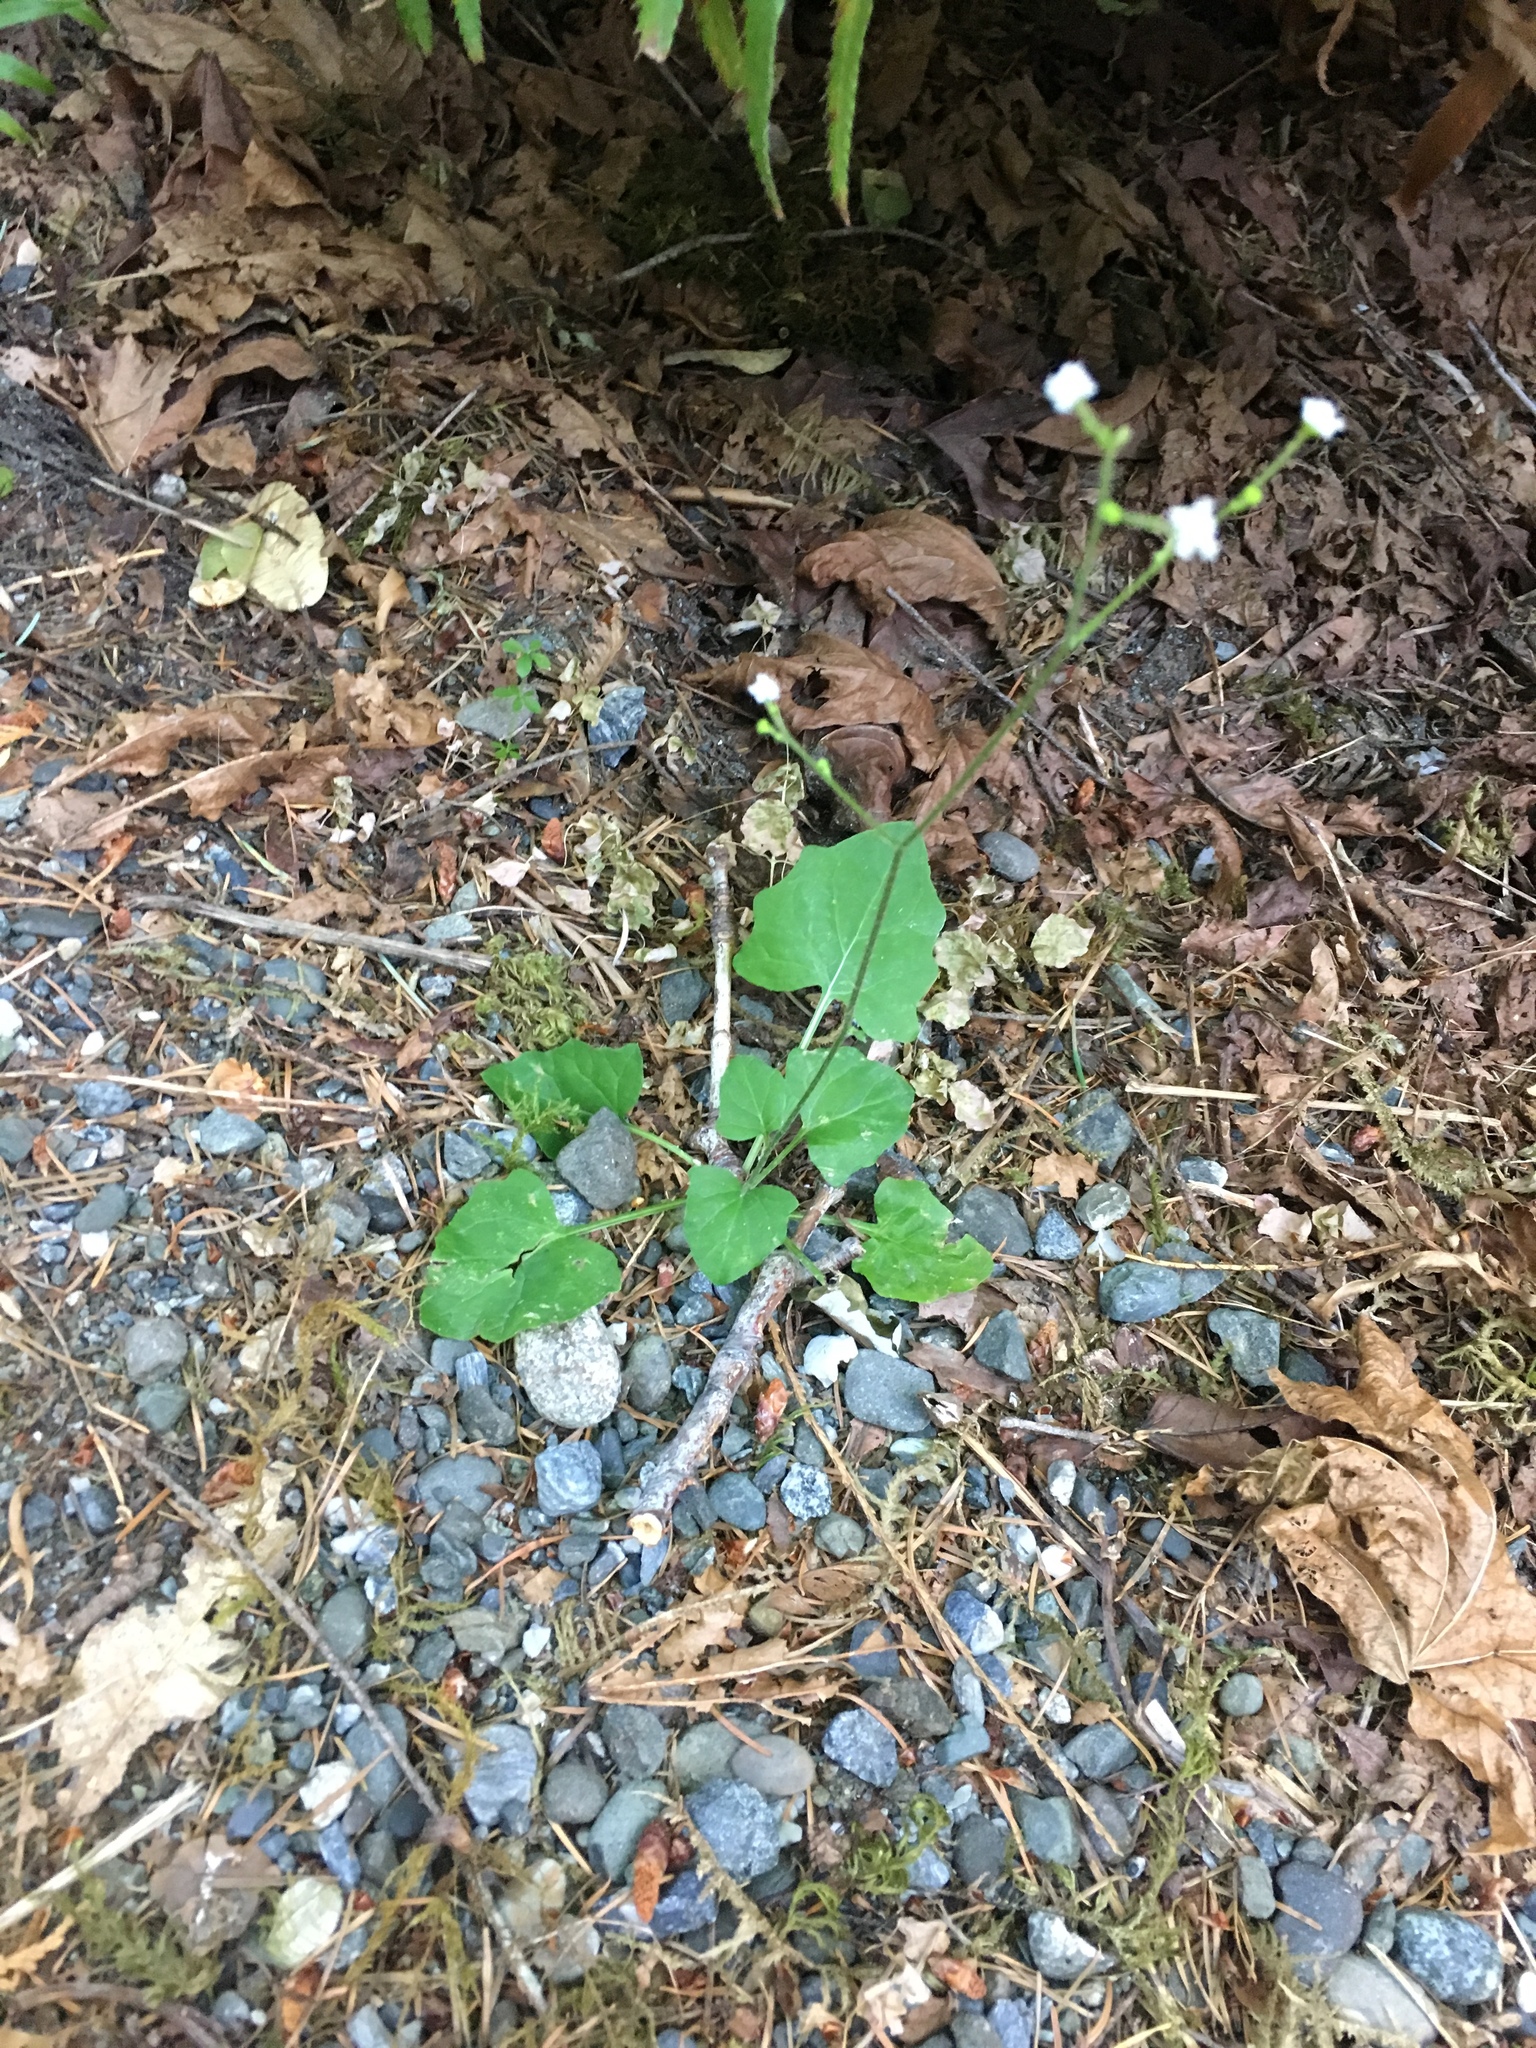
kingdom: Plantae
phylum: Tracheophyta
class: Magnoliopsida
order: Asterales
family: Asteraceae
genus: Adenocaulon
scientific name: Adenocaulon bicolor
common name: Trailplant
